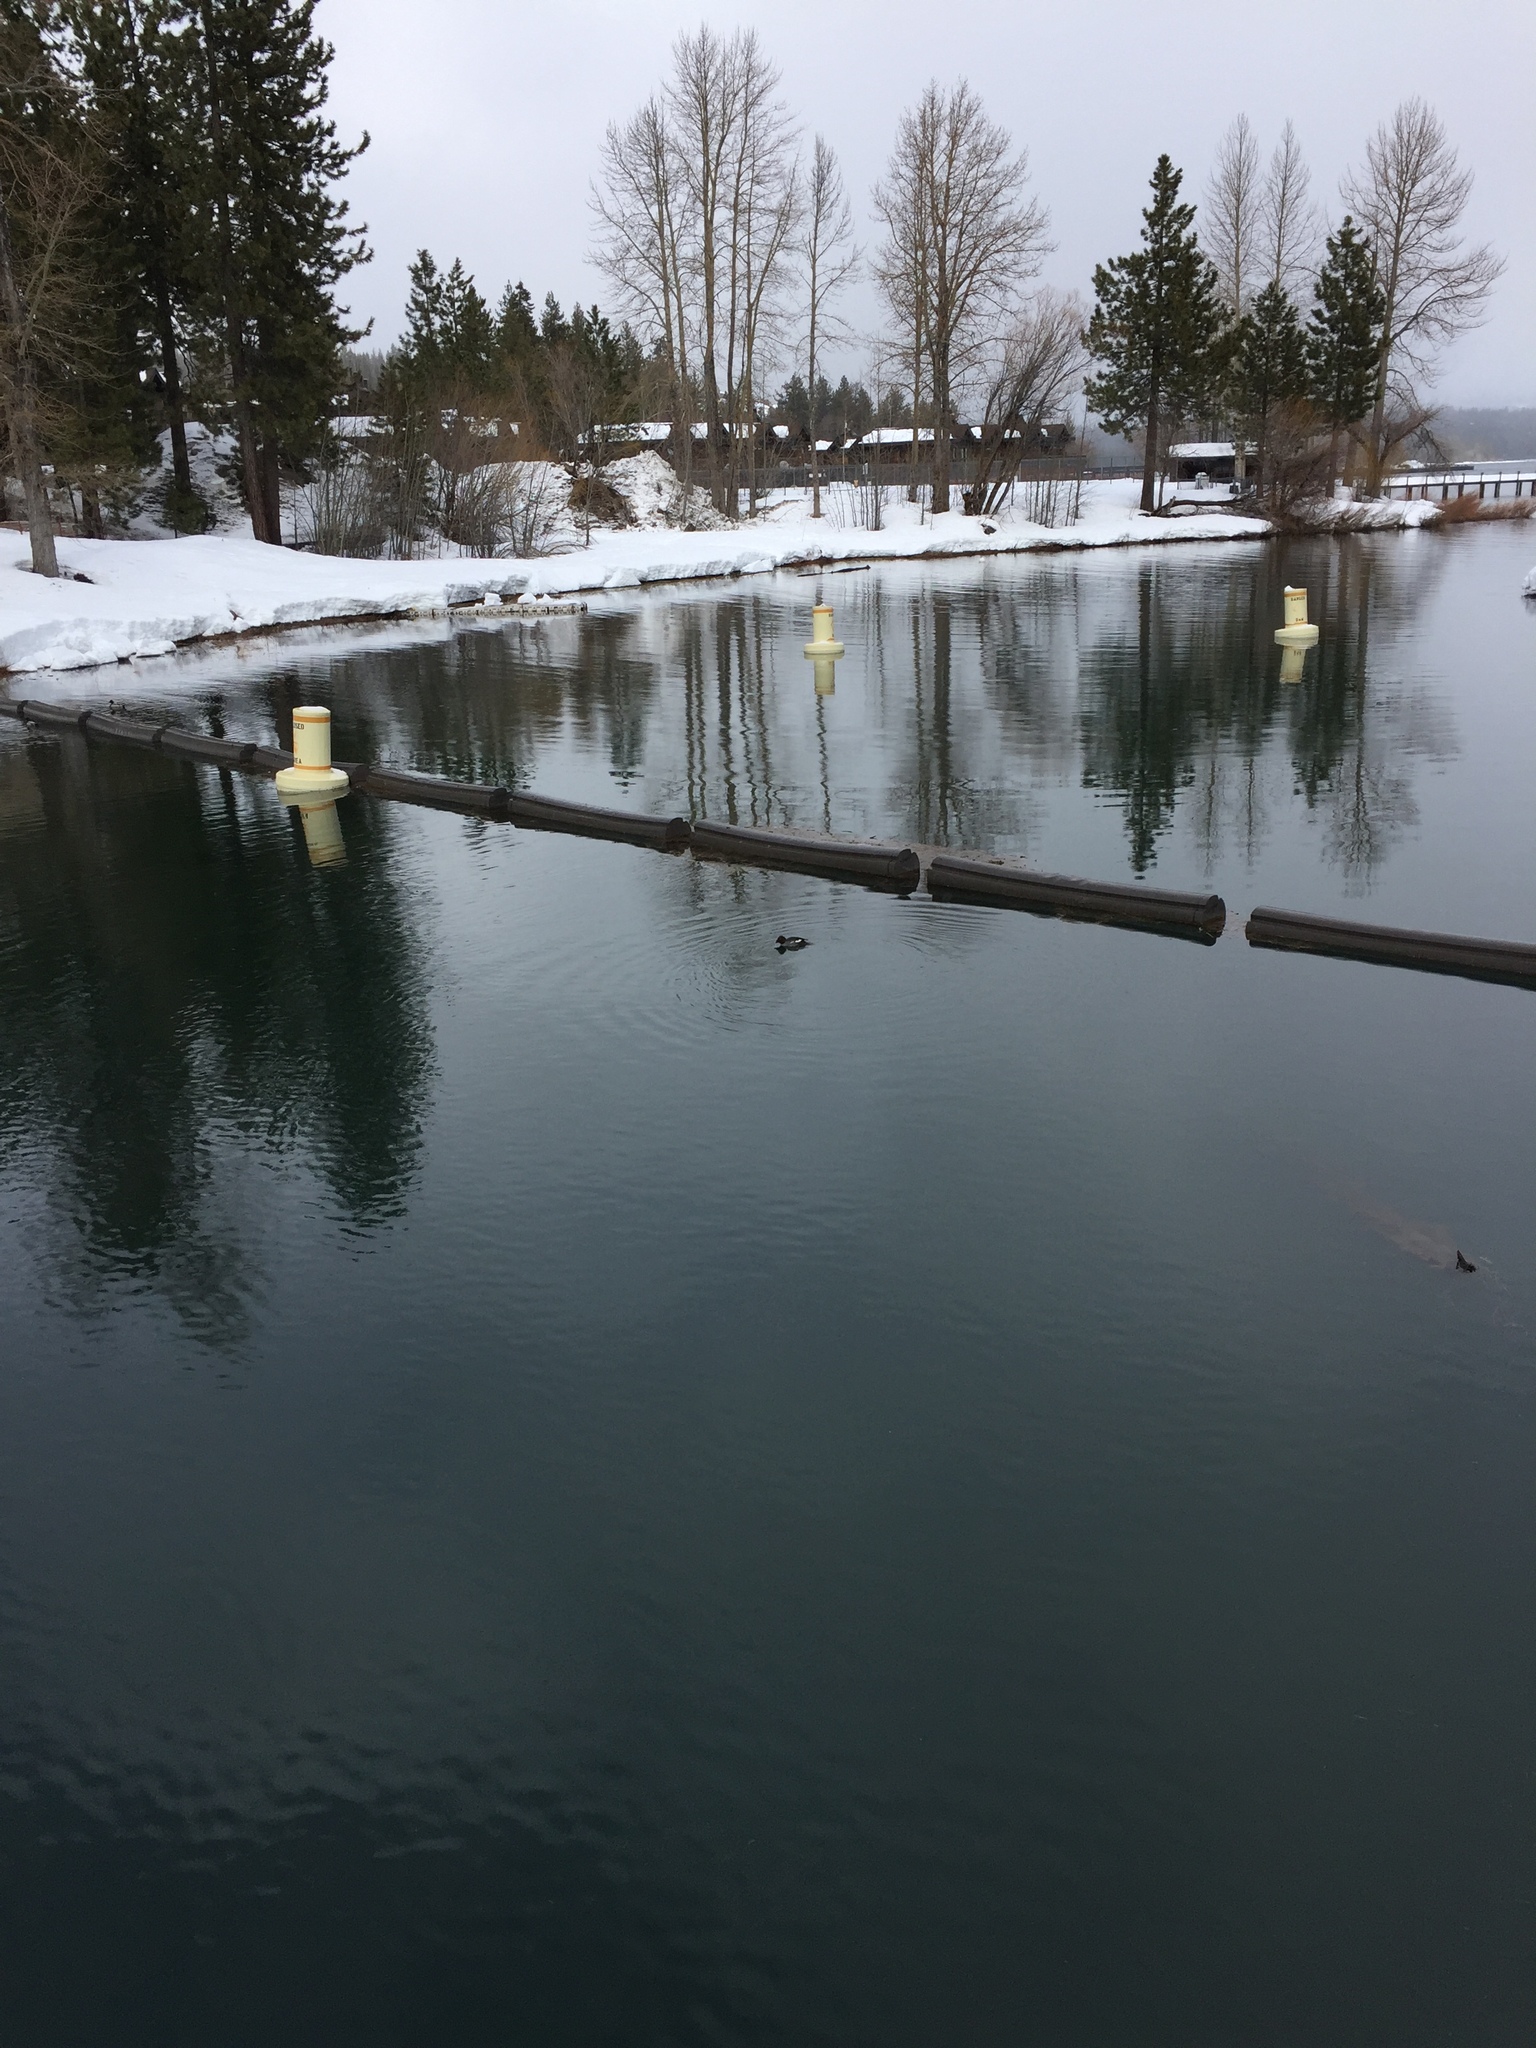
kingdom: Animalia
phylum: Chordata
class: Aves
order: Anseriformes
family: Anatidae
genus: Bucephala
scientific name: Bucephala clangula
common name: Common goldeneye
